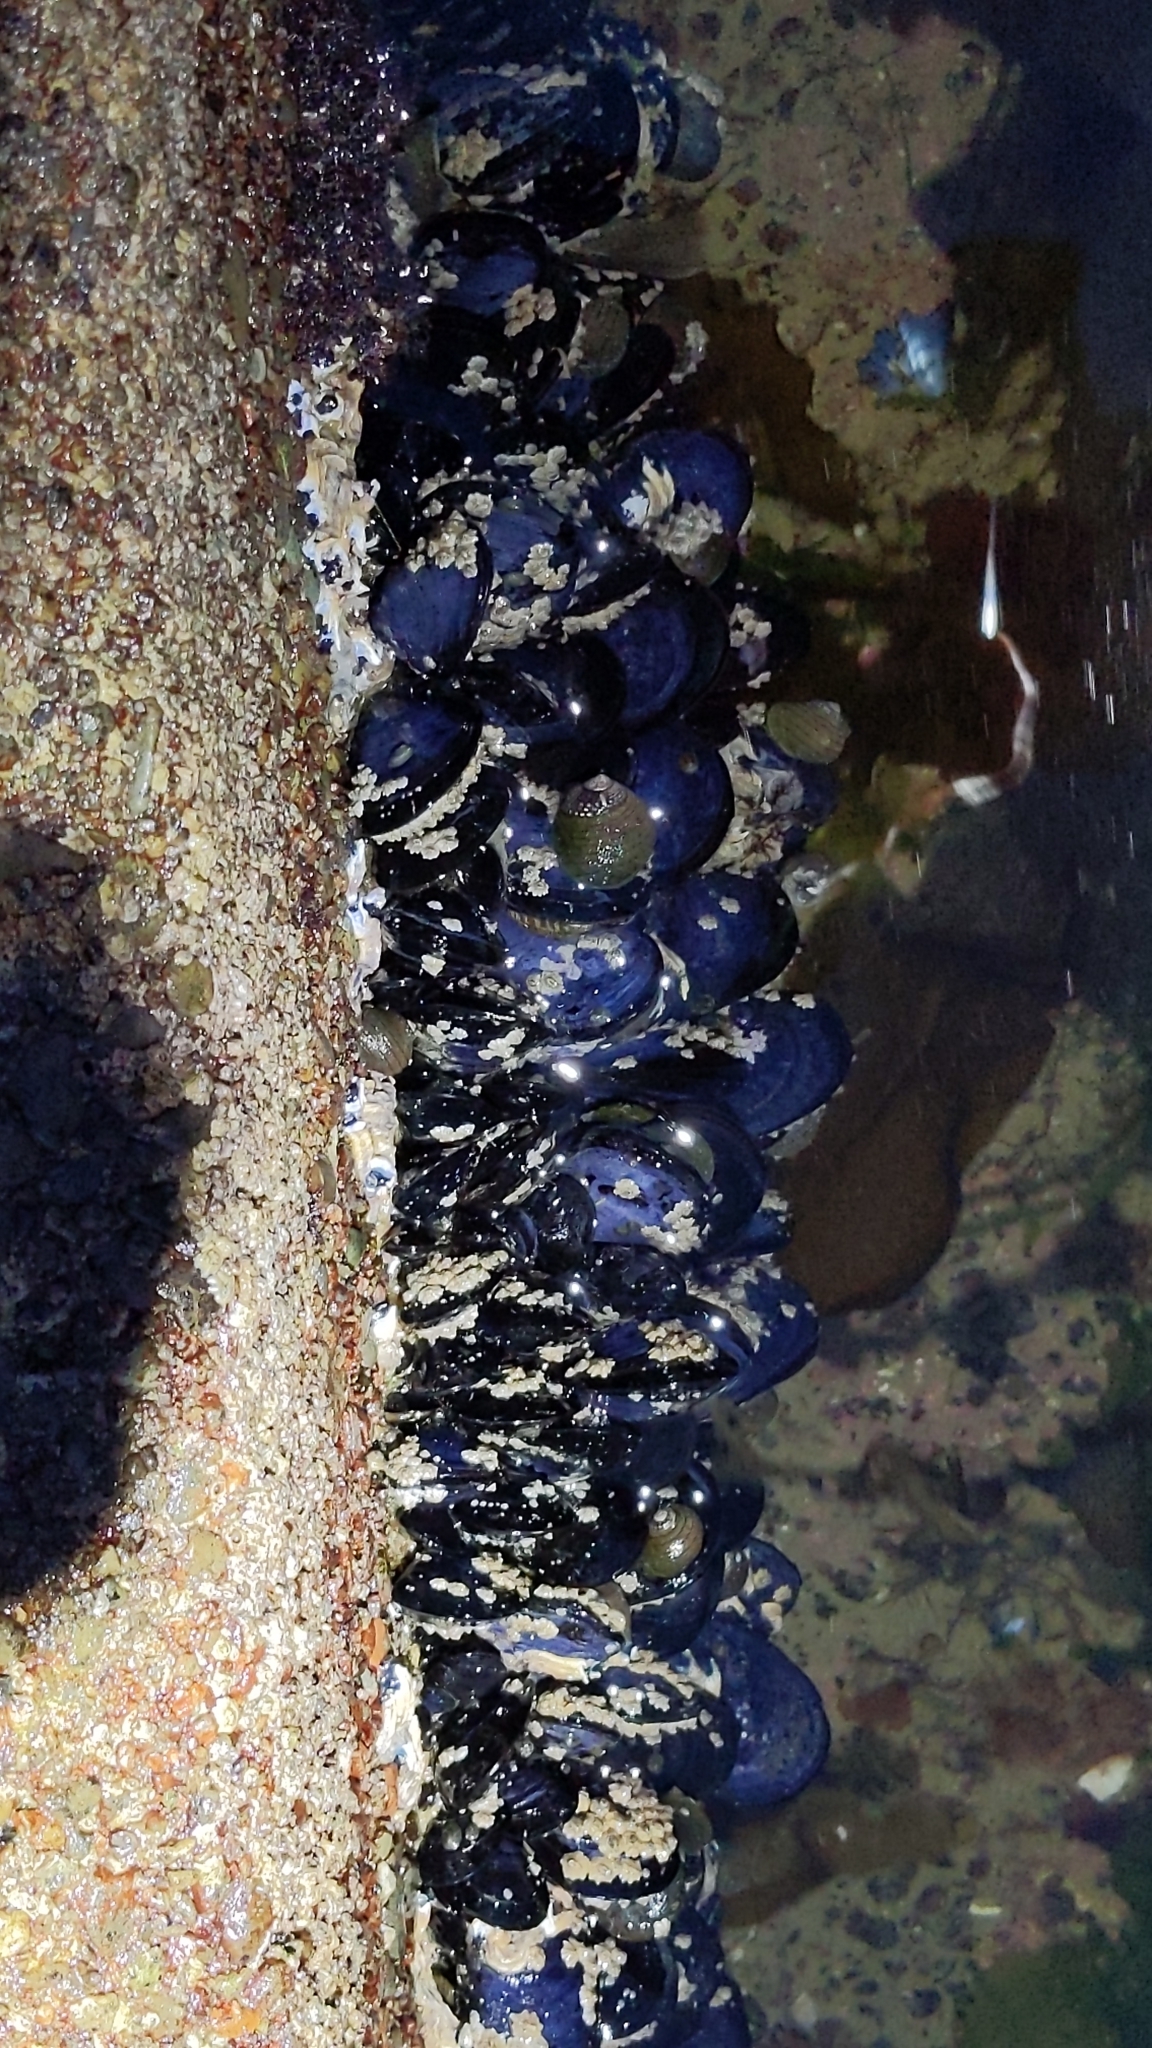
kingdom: Animalia
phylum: Mollusca
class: Bivalvia
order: Mytilida
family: Mytilidae
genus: Mytilus
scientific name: Mytilus planulatus
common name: Australian mussel
